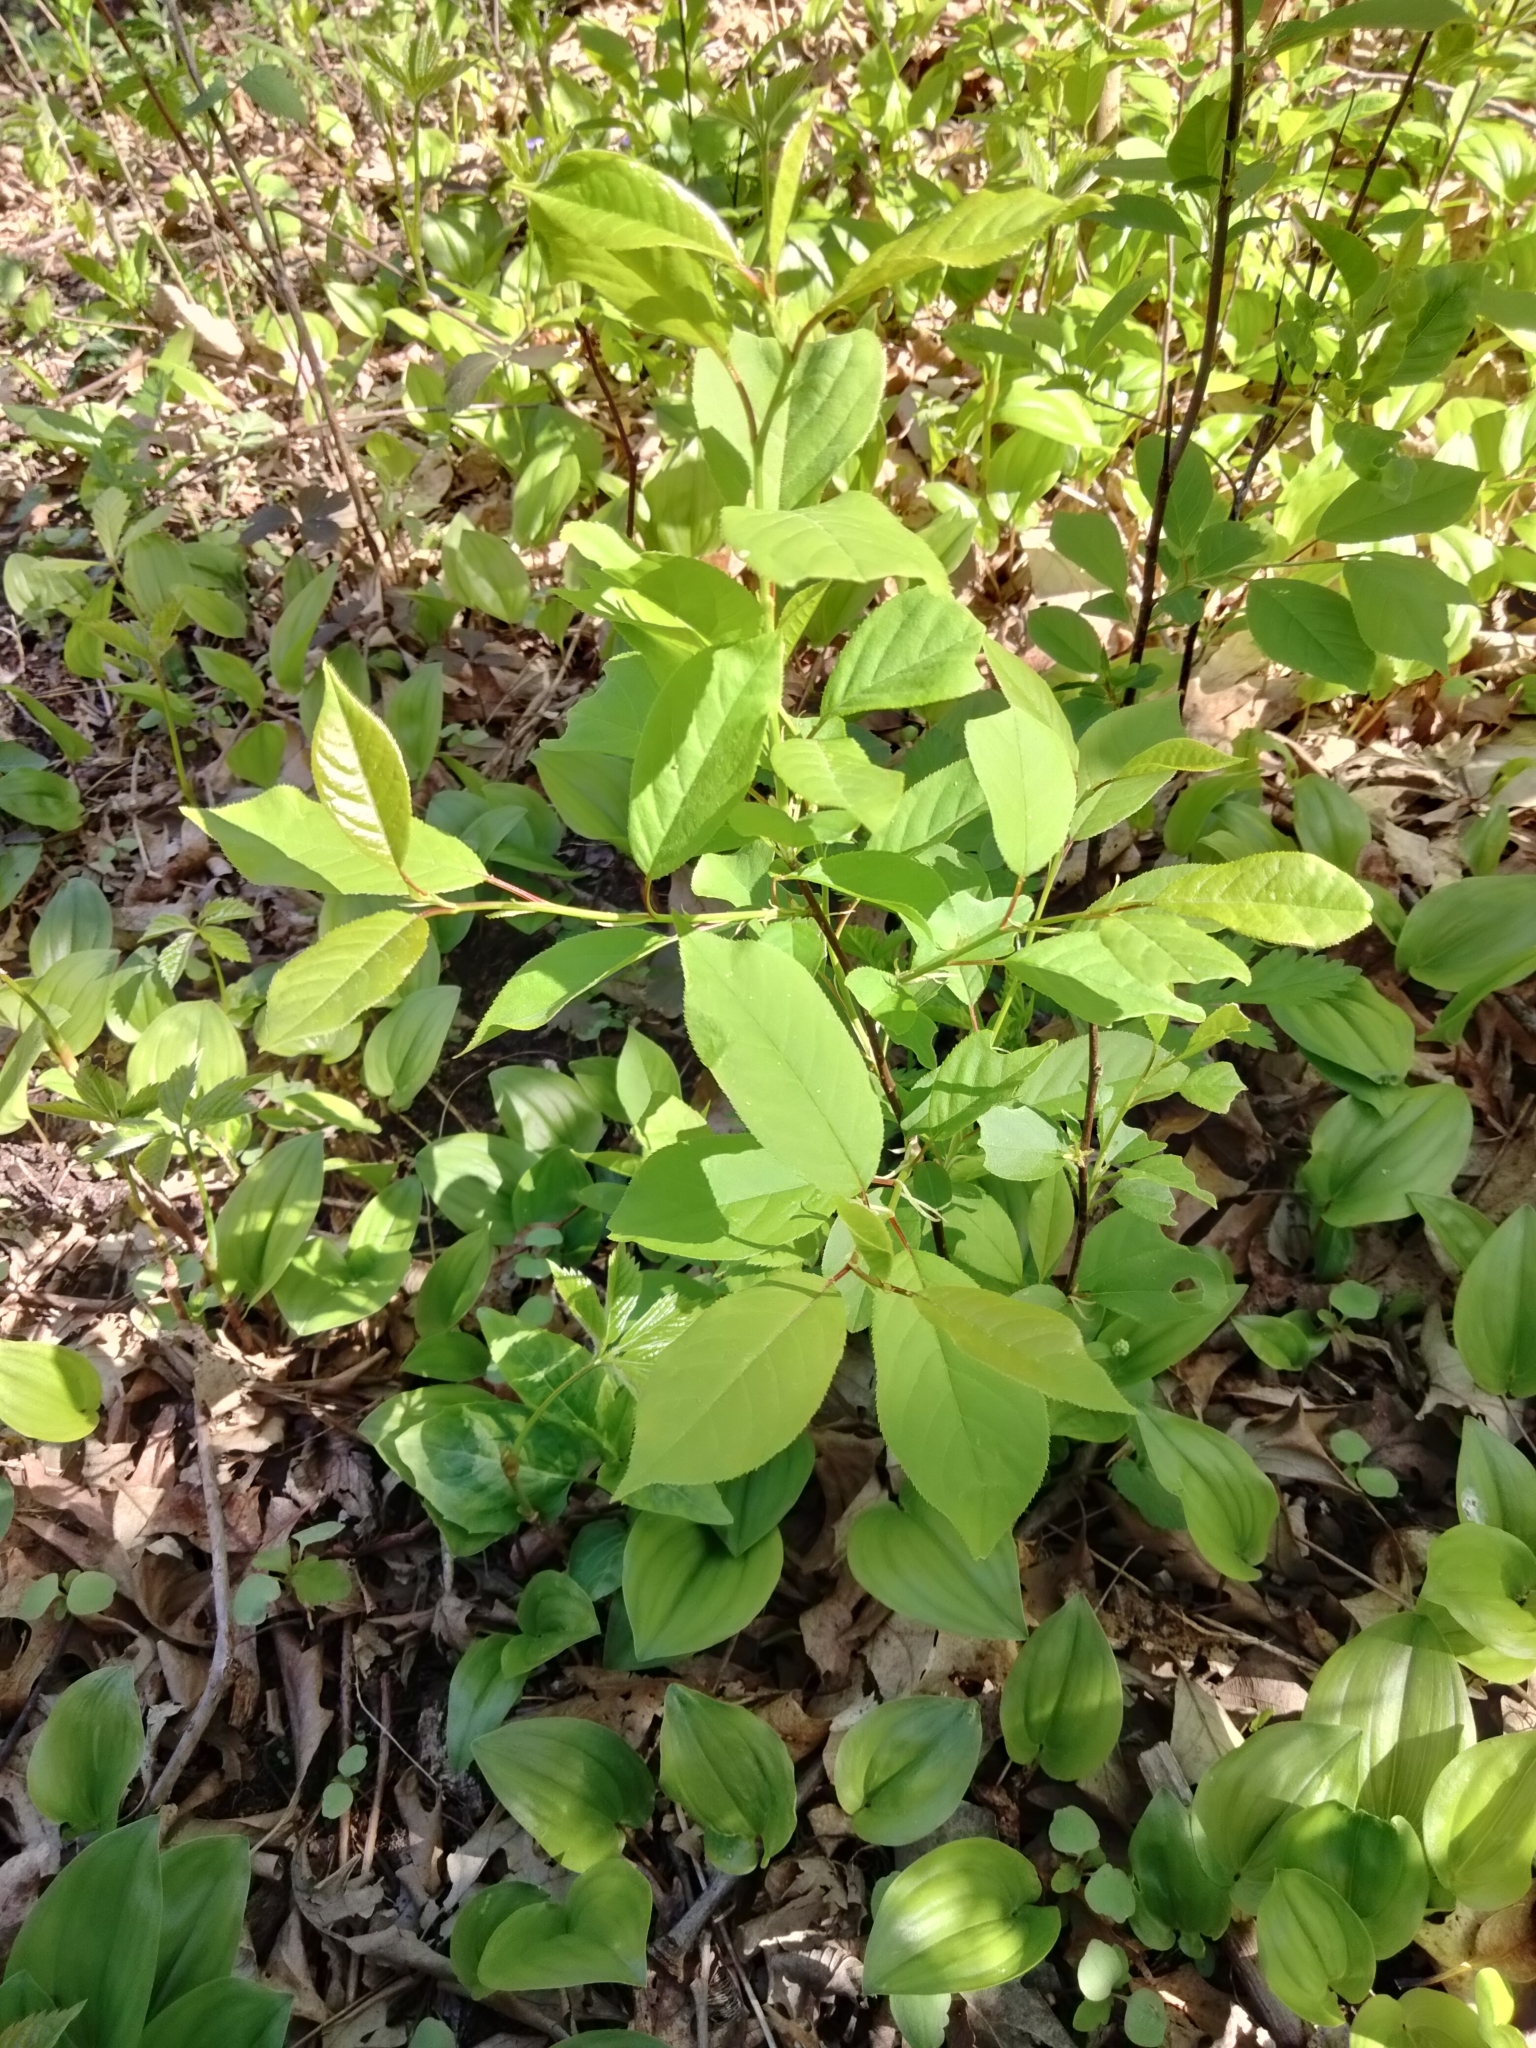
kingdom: Plantae
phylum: Tracheophyta
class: Magnoliopsida
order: Rosales
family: Rhamnaceae
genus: Frangula
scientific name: Frangula alnus
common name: Alder buckthorn
